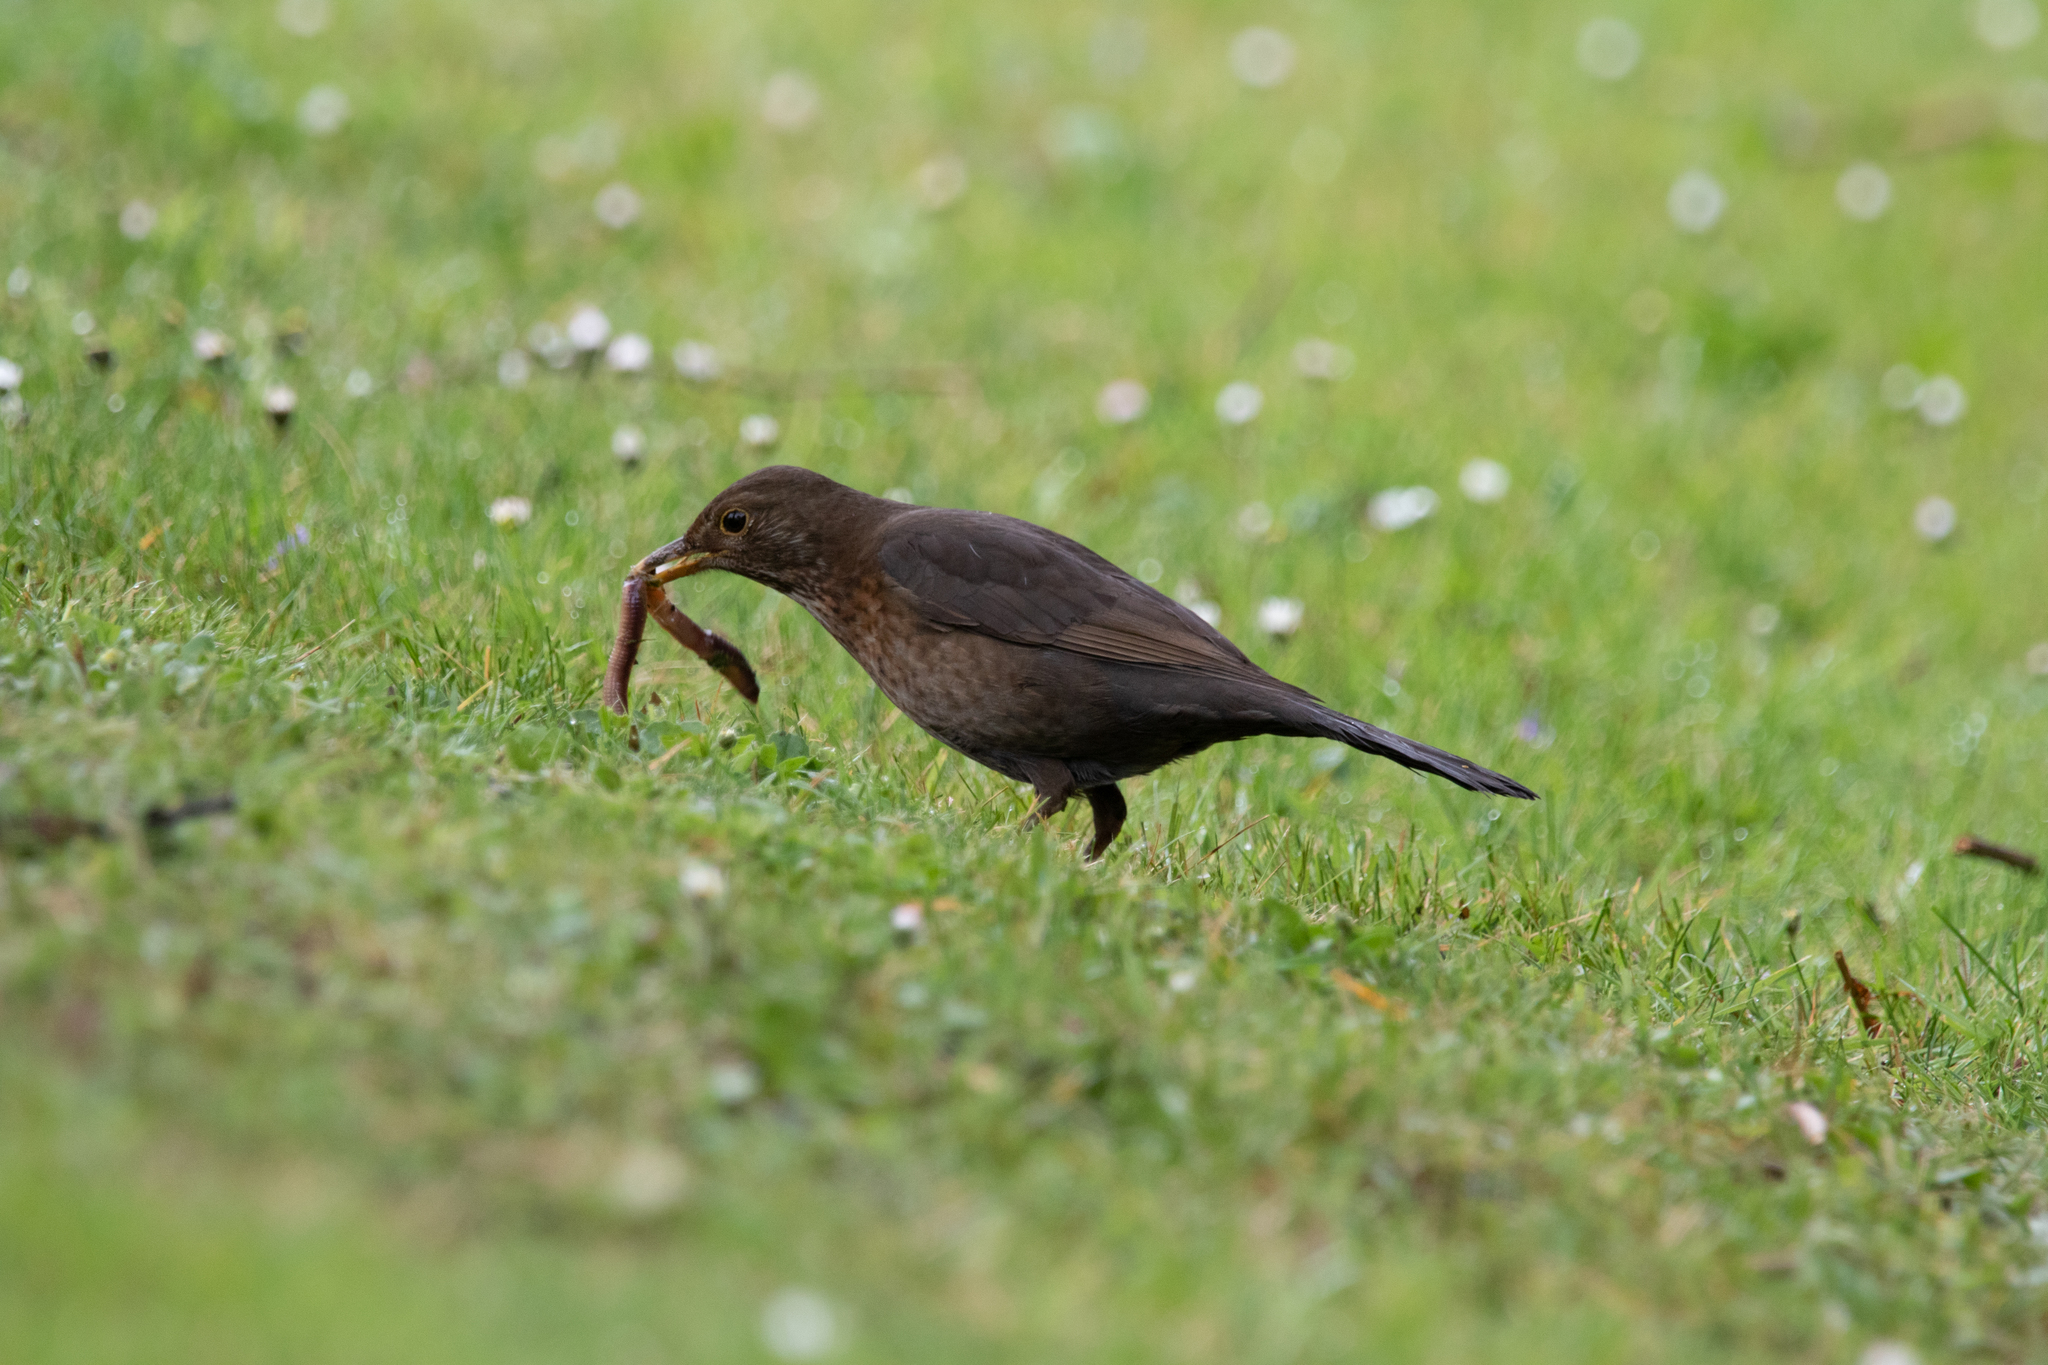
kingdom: Animalia
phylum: Chordata
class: Aves
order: Passeriformes
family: Turdidae
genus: Turdus
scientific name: Turdus merula
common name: Common blackbird
